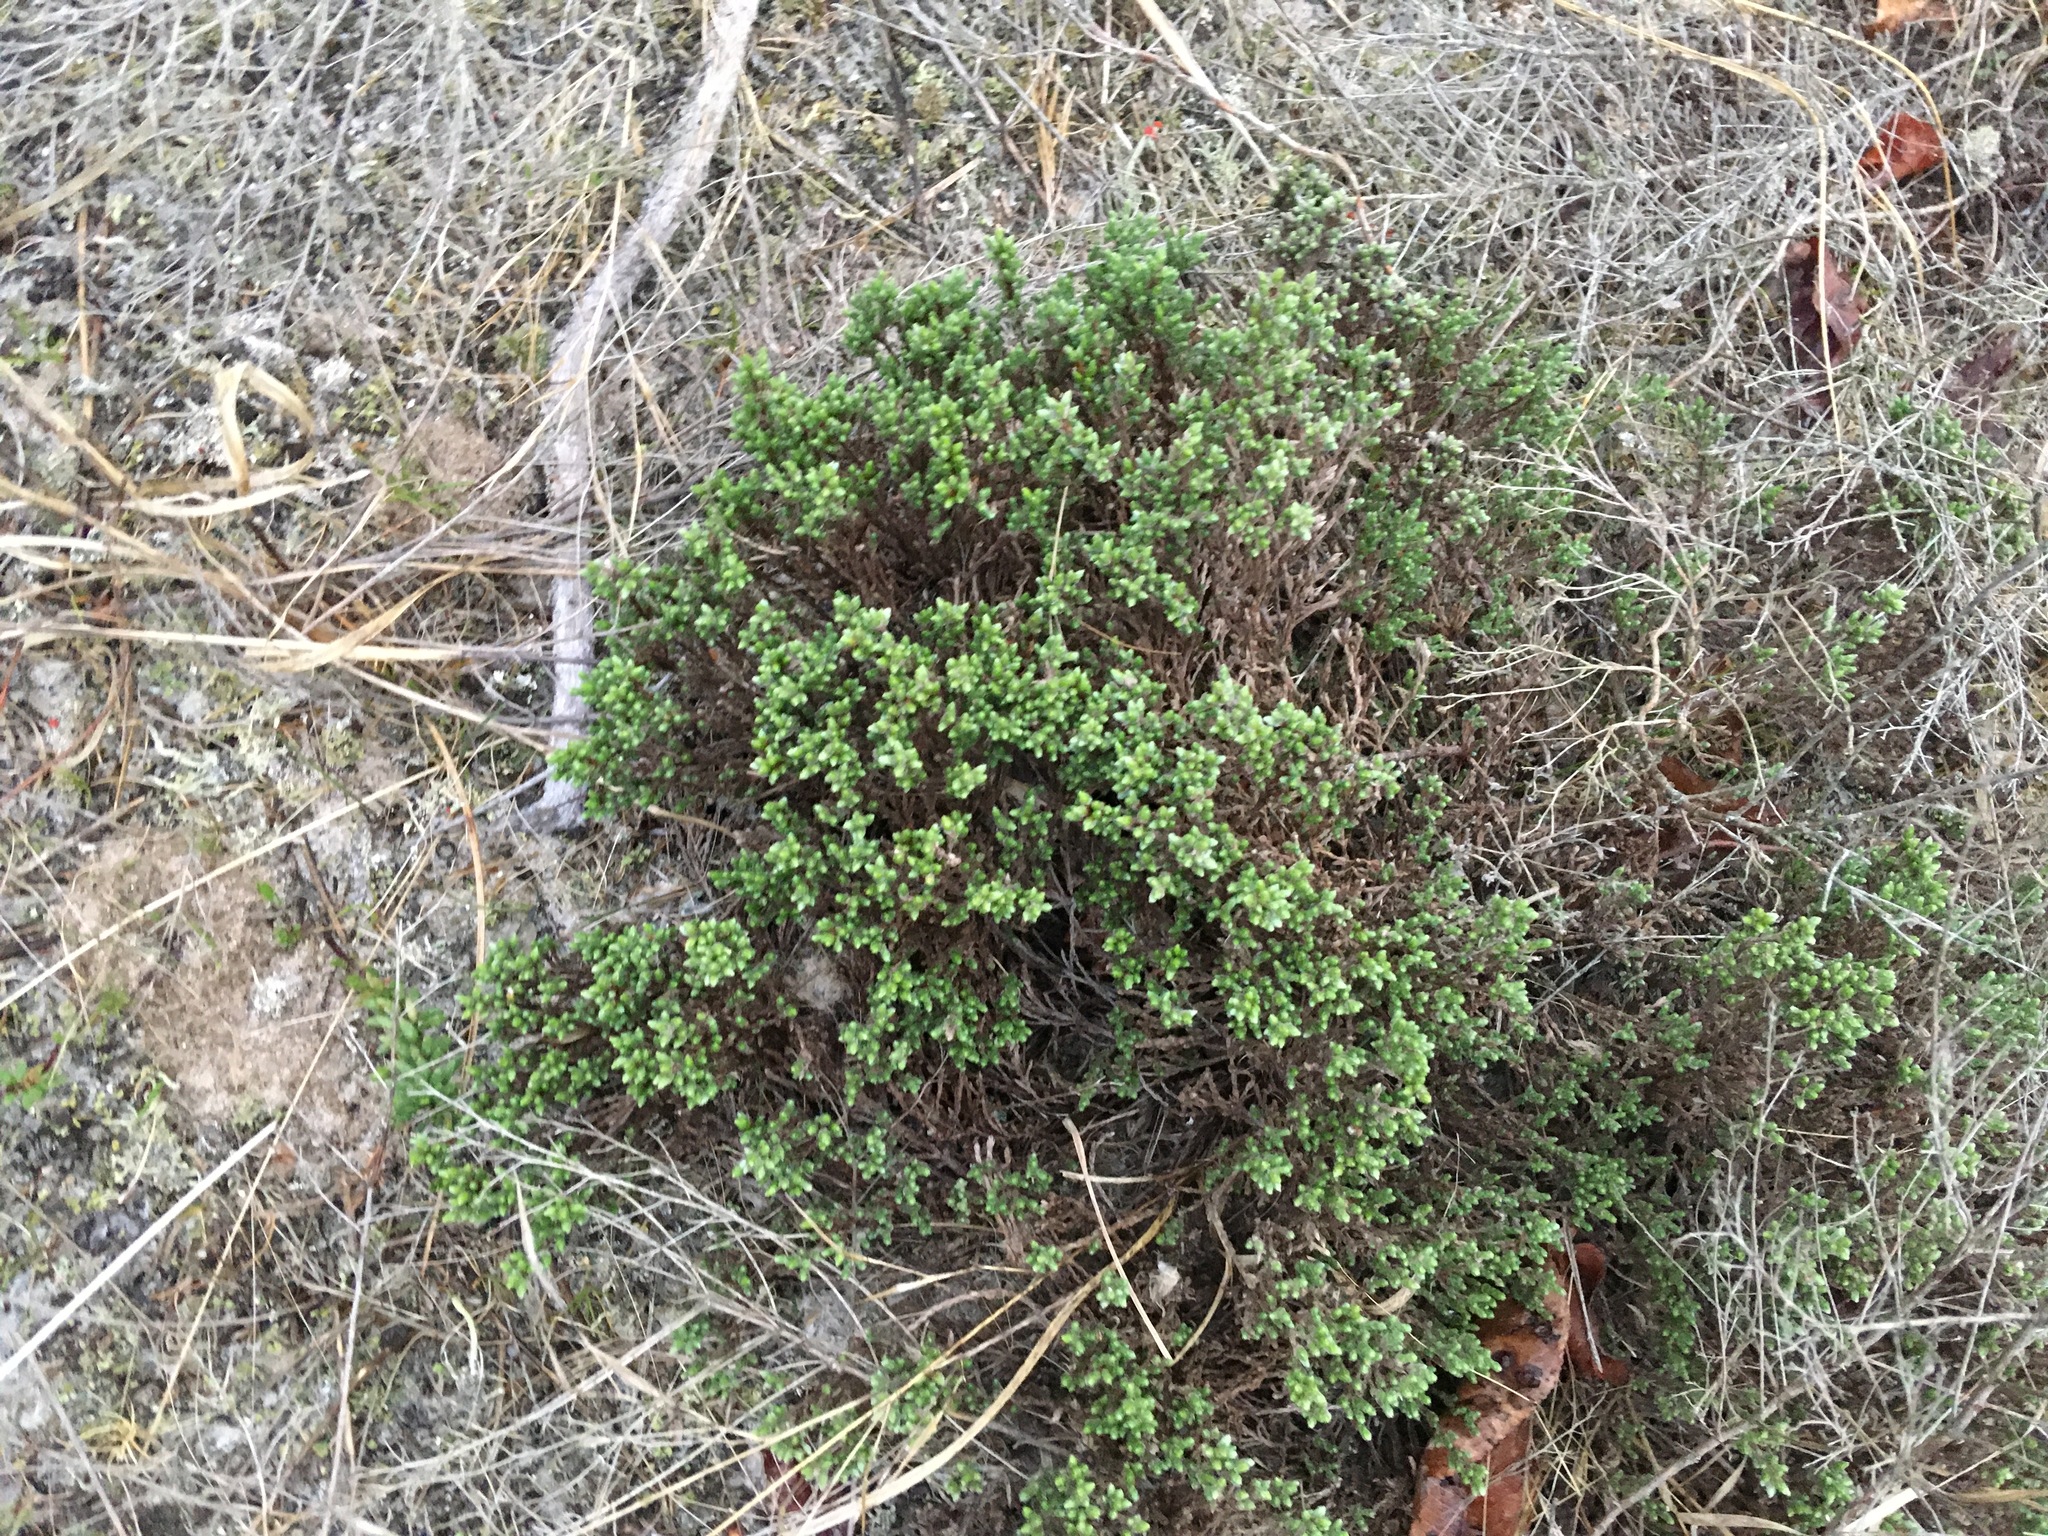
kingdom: Plantae
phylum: Tracheophyta
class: Magnoliopsida
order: Malvales
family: Cistaceae
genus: Hudsonia
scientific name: Hudsonia tomentosa
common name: Beach-heath
